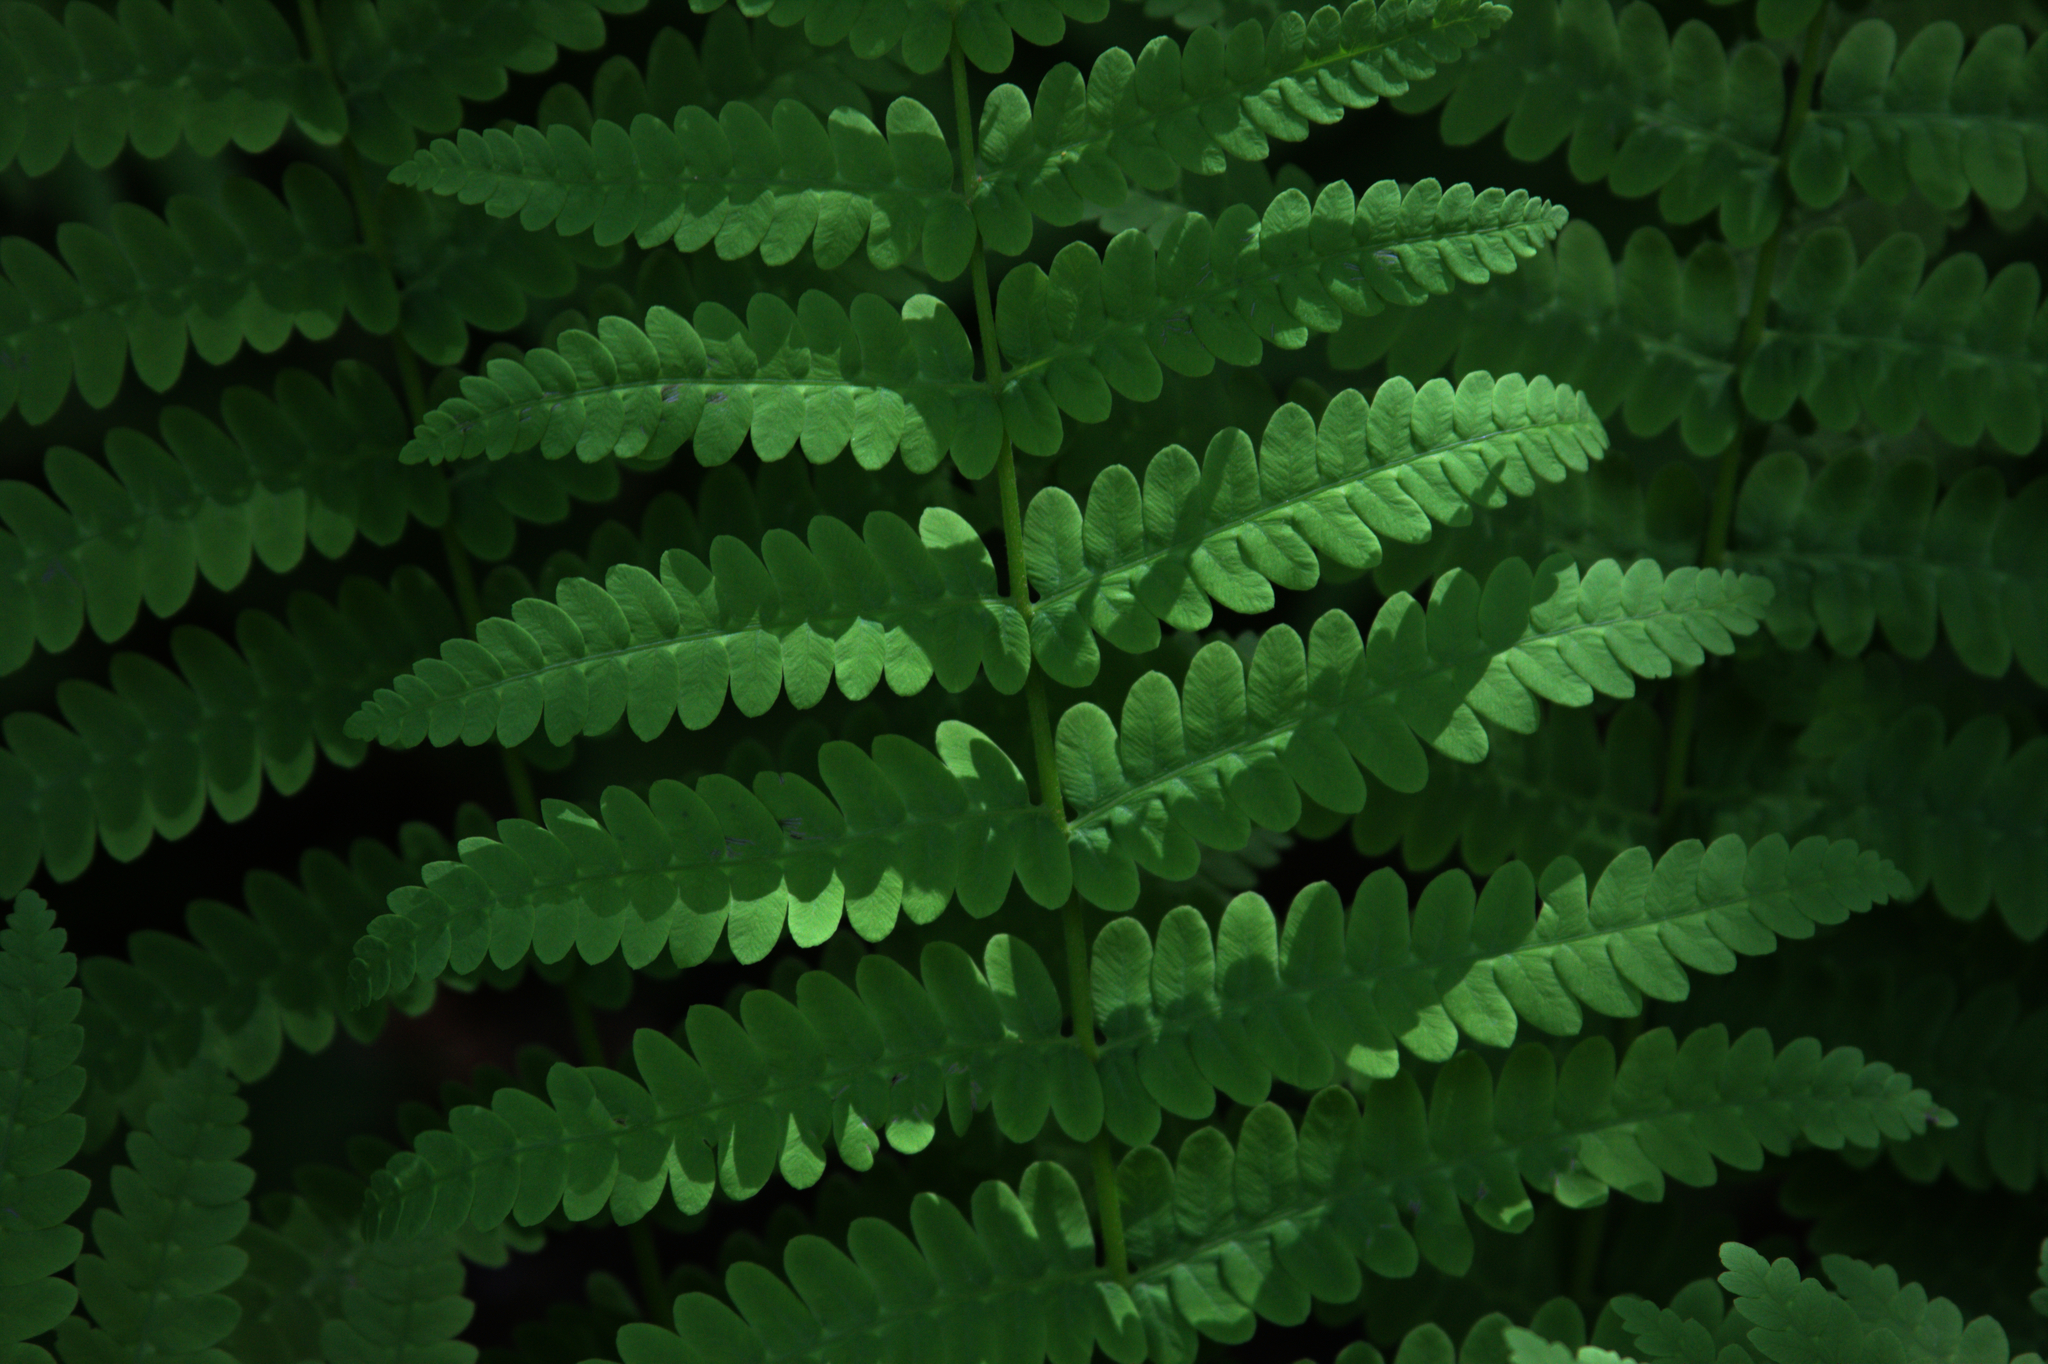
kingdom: Plantae
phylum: Tracheophyta
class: Polypodiopsida
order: Osmundales
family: Osmundaceae
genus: Claytosmunda
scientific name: Claytosmunda claytoniana
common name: Clayton's fern
